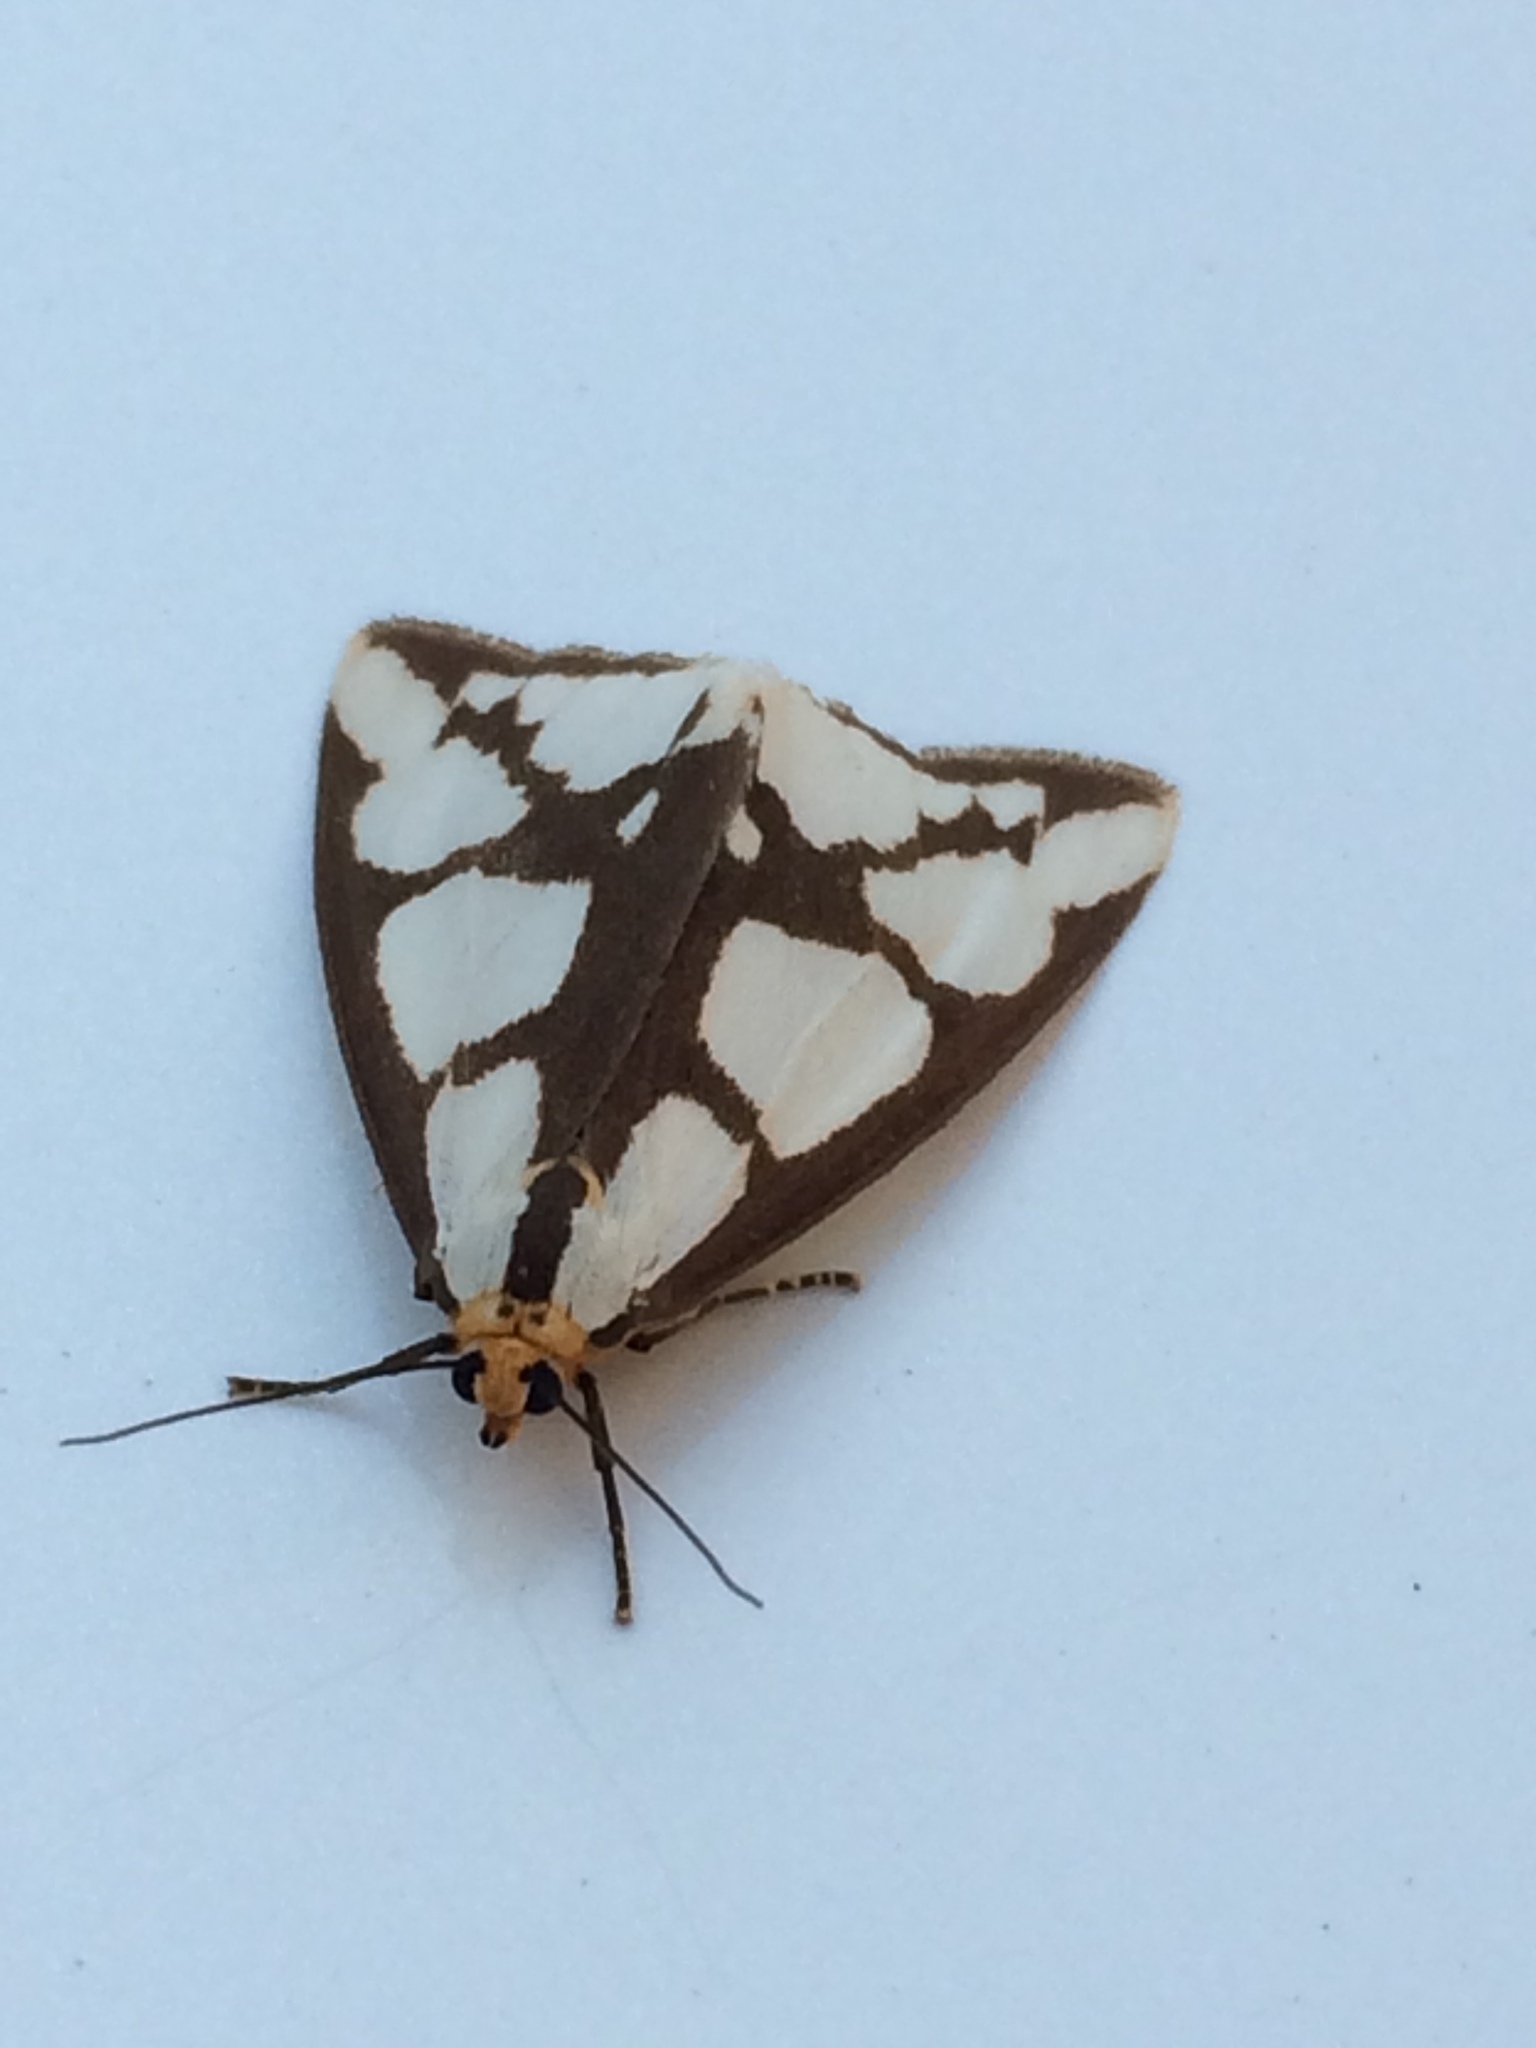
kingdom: Animalia
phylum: Arthropoda
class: Insecta
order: Lepidoptera
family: Erebidae
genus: Haploa
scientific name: Haploa lecontei
